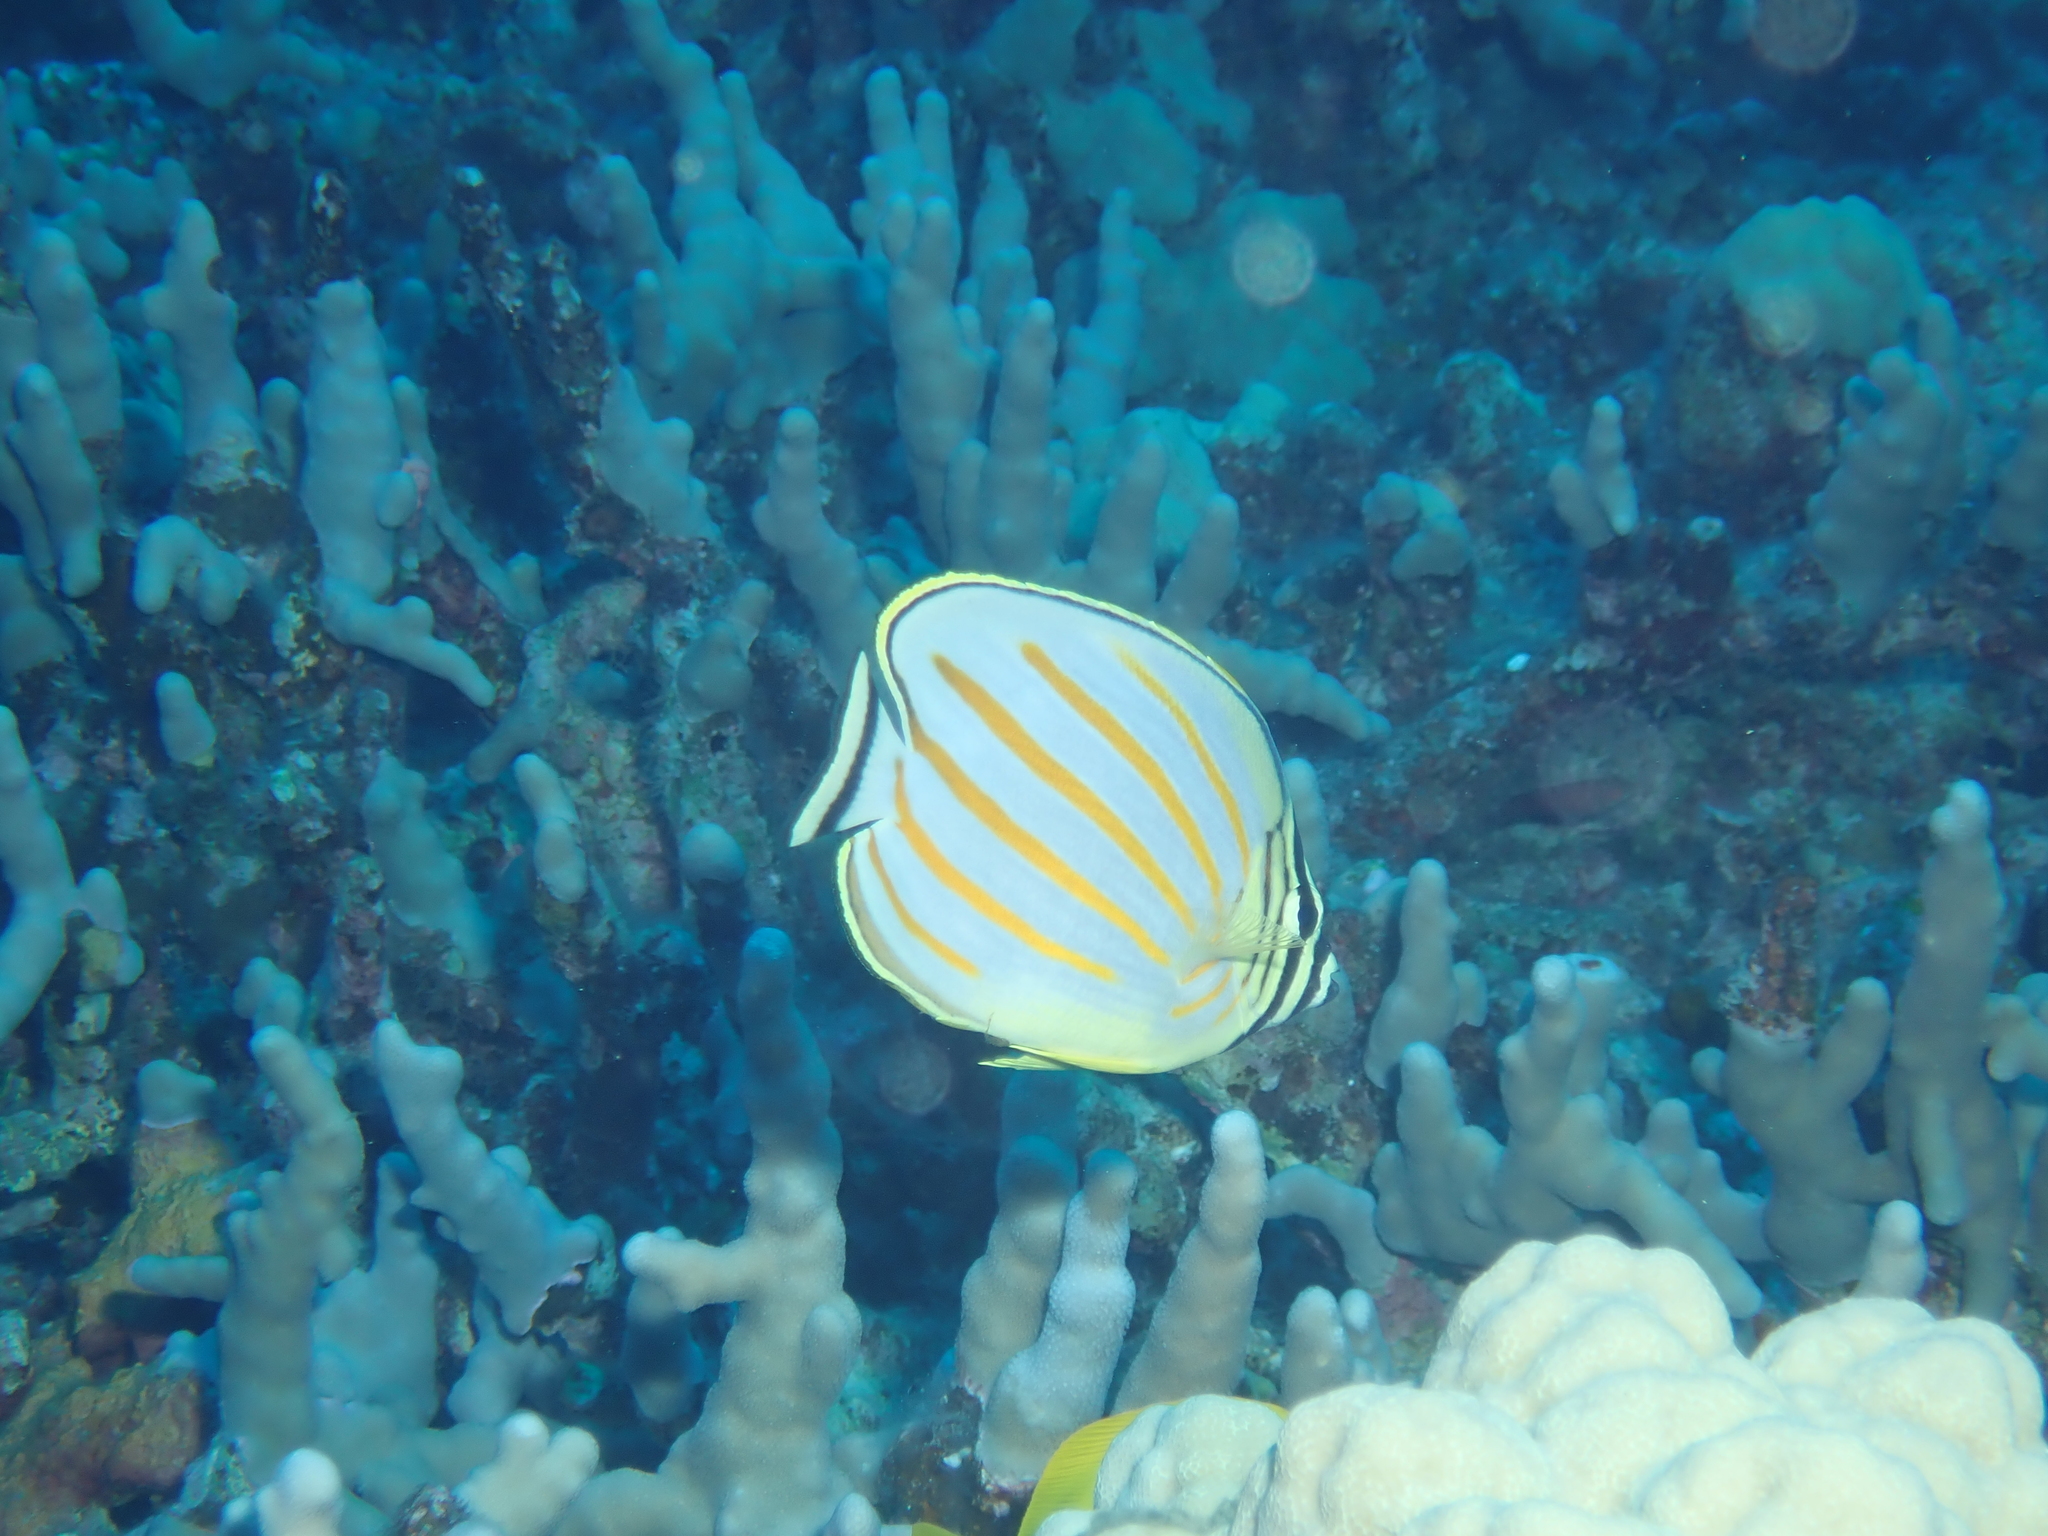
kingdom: Animalia
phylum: Chordata
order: Perciformes
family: Chaetodontidae
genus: Chaetodon
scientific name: Chaetodon ornatissimus
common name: Ornate butterflyfish
